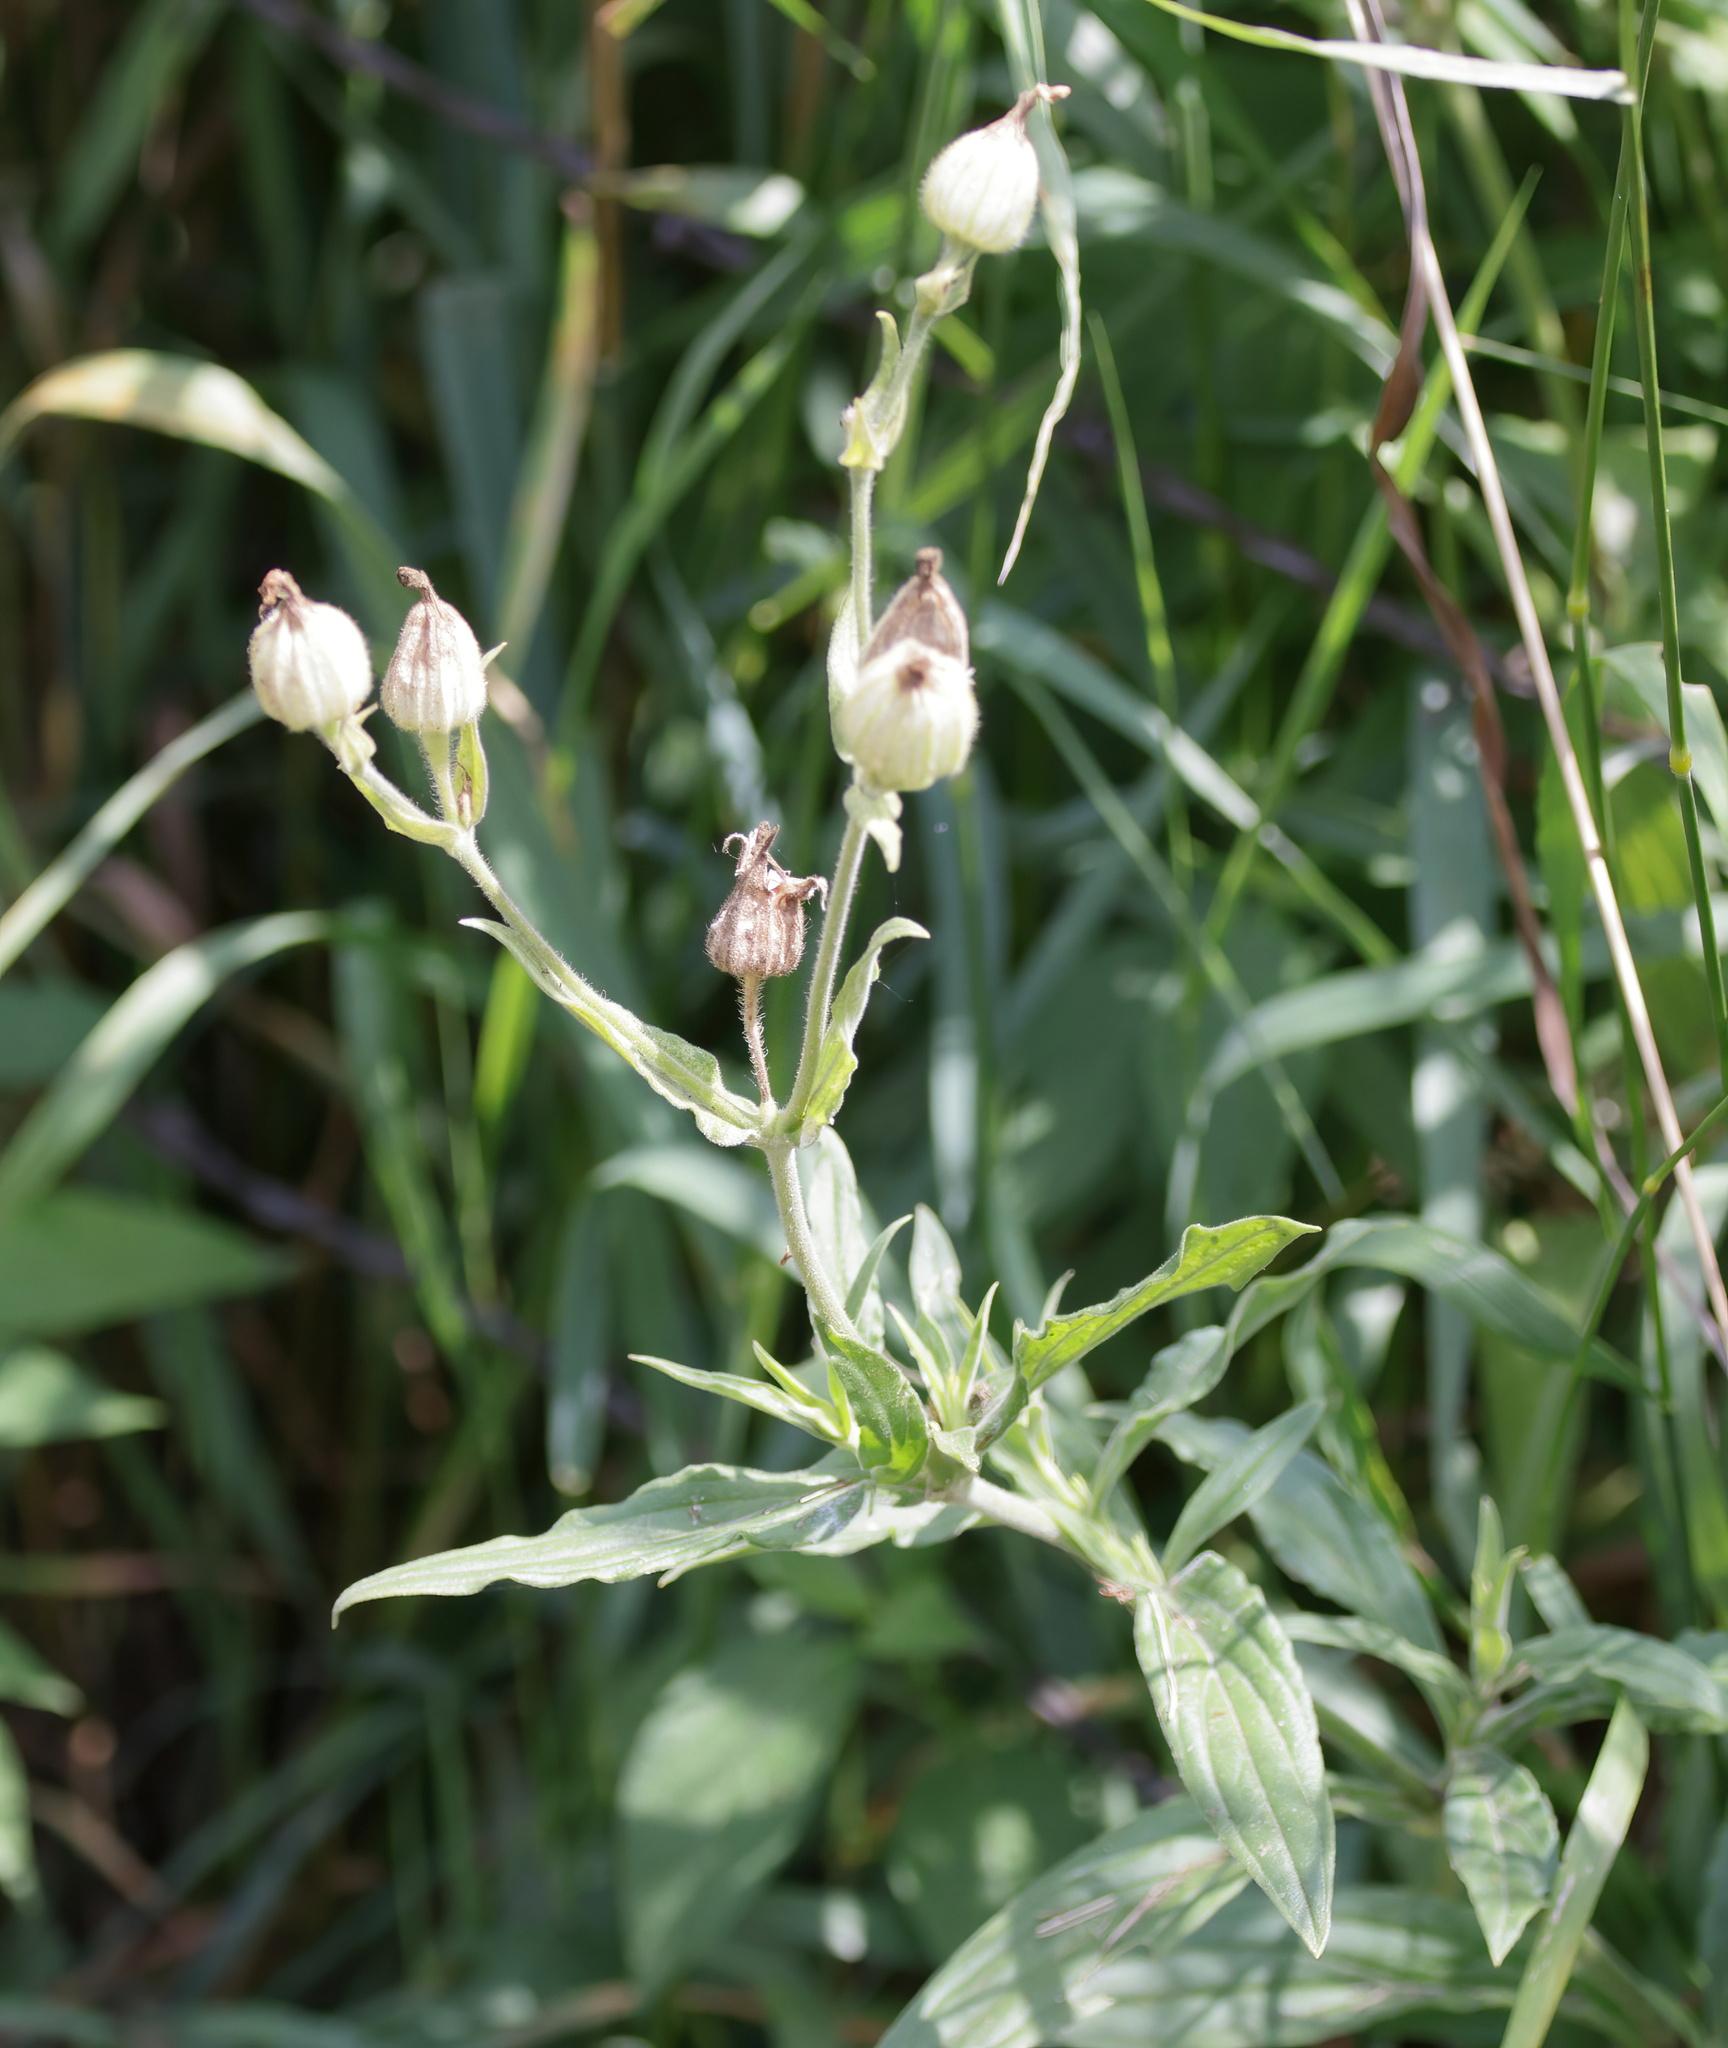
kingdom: Plantae
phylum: Tracheophyta
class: Magnoliopsida
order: Caryophyllales
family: Caryophyllaceae
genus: Silene
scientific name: Silene latifolia
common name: White campion
